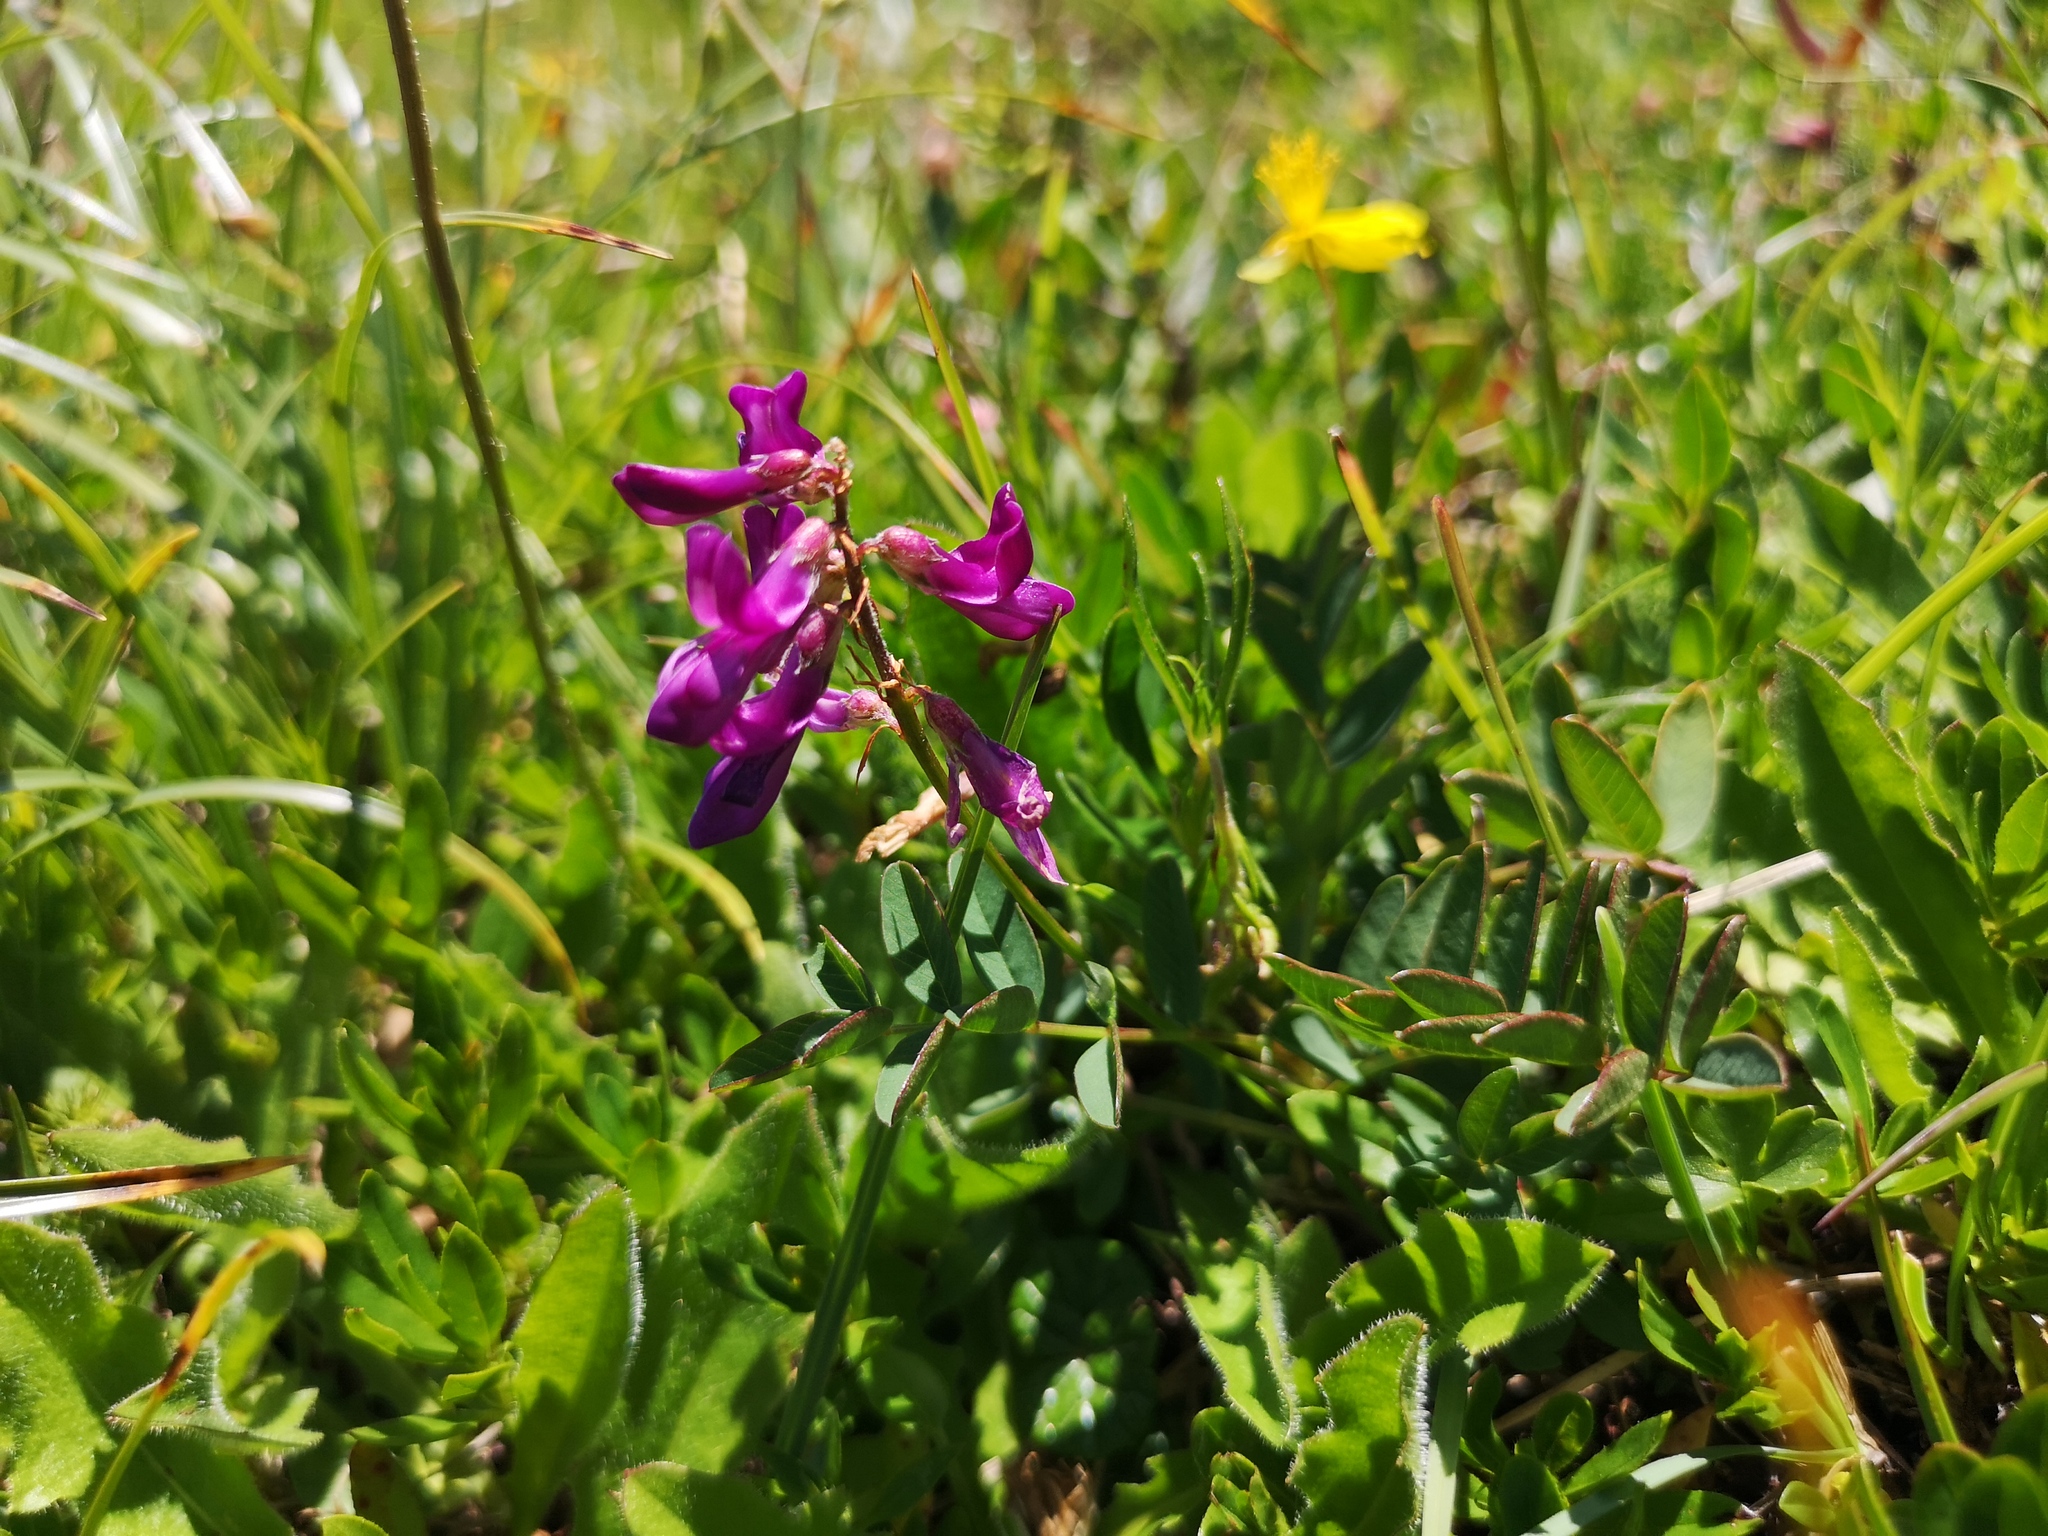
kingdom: Plantae
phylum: Tracheophyta
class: Magnoliopsida
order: Fabales
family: Fabaceae
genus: Hedysarum
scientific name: Hedysarum hedysaroides
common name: Alpine french-honeysuckle
